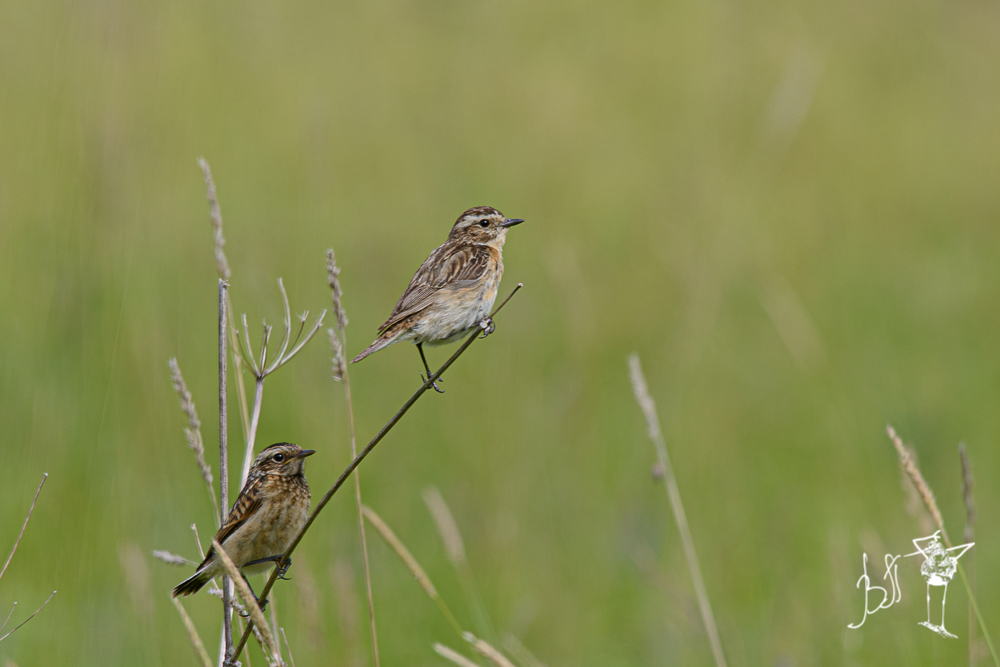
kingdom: Animalia
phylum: Chordata
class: Aves
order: Passeriformes
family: Muscicapidae
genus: Saxicola
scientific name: Saxicola rubetra
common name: Whinchat
